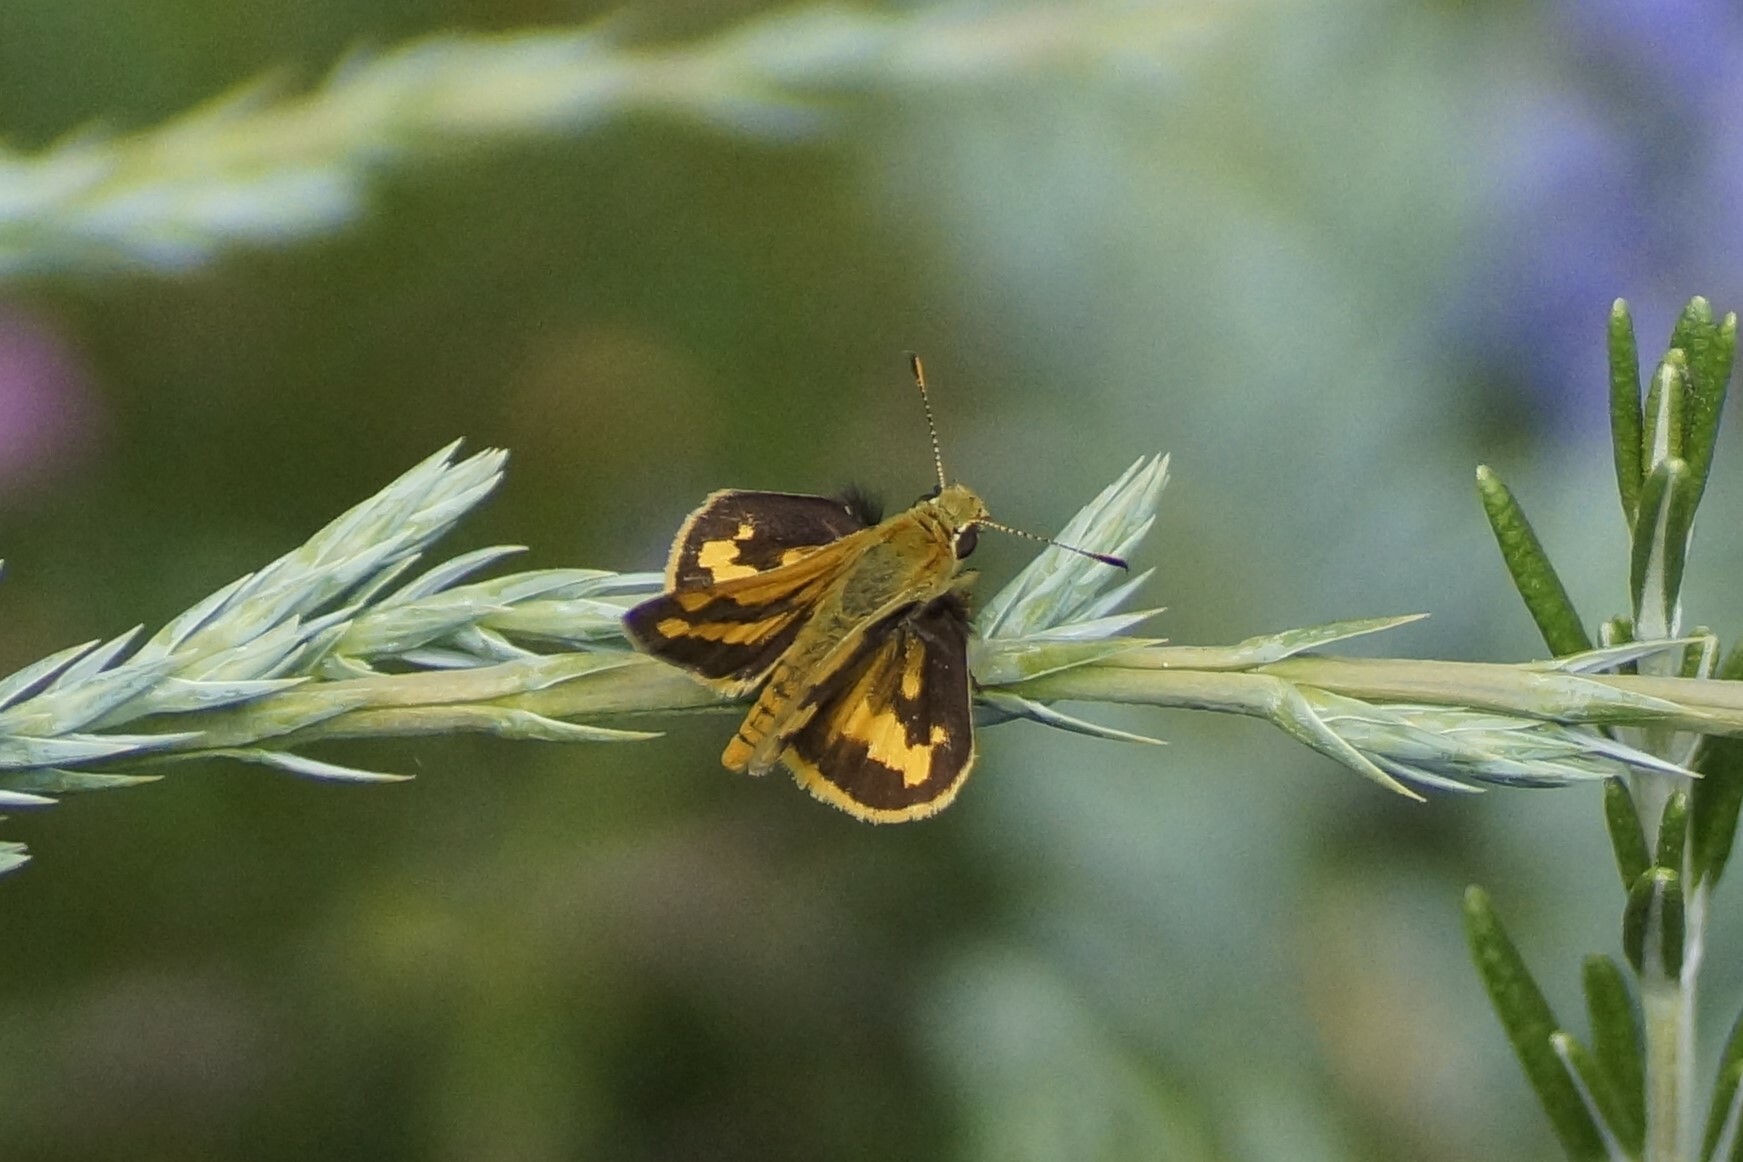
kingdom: Animalia
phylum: Arthropoda
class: Insecta
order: Lepidoptera
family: Hesperiidae
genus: Ocybadistes
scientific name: Ocybadistes walkeri
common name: Yellow-banded dart
